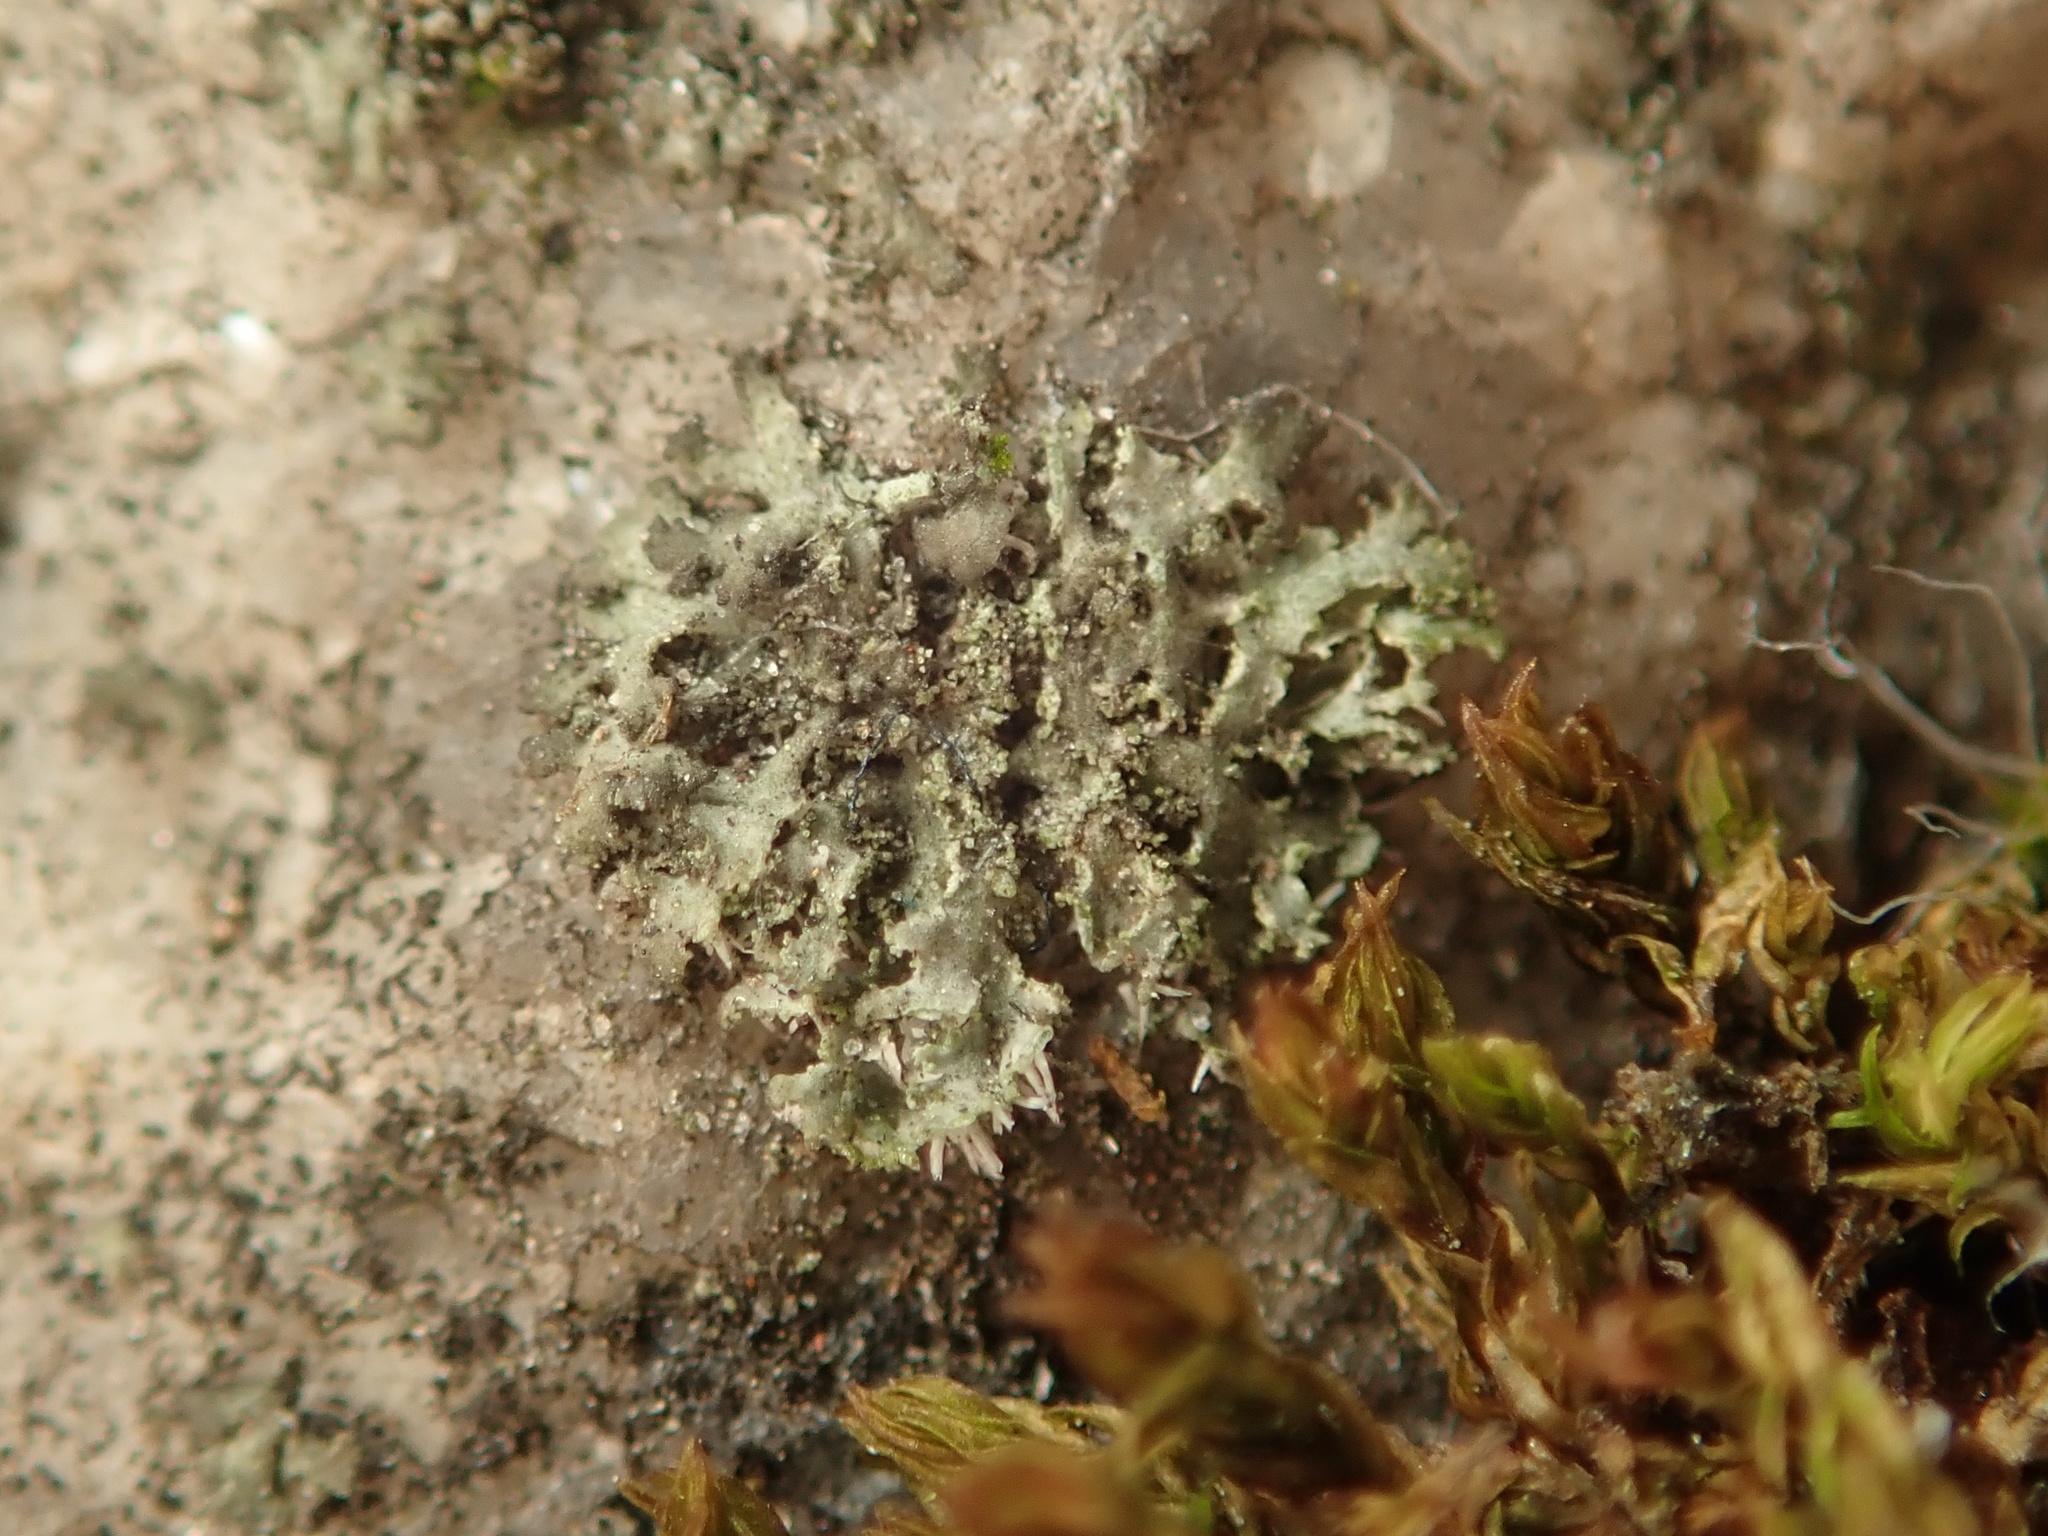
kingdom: Fungi
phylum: Ascomycota
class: Lecanoromycetes
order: Caliciales
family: Physciaceae
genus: Physciella
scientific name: Physciella nigricans
